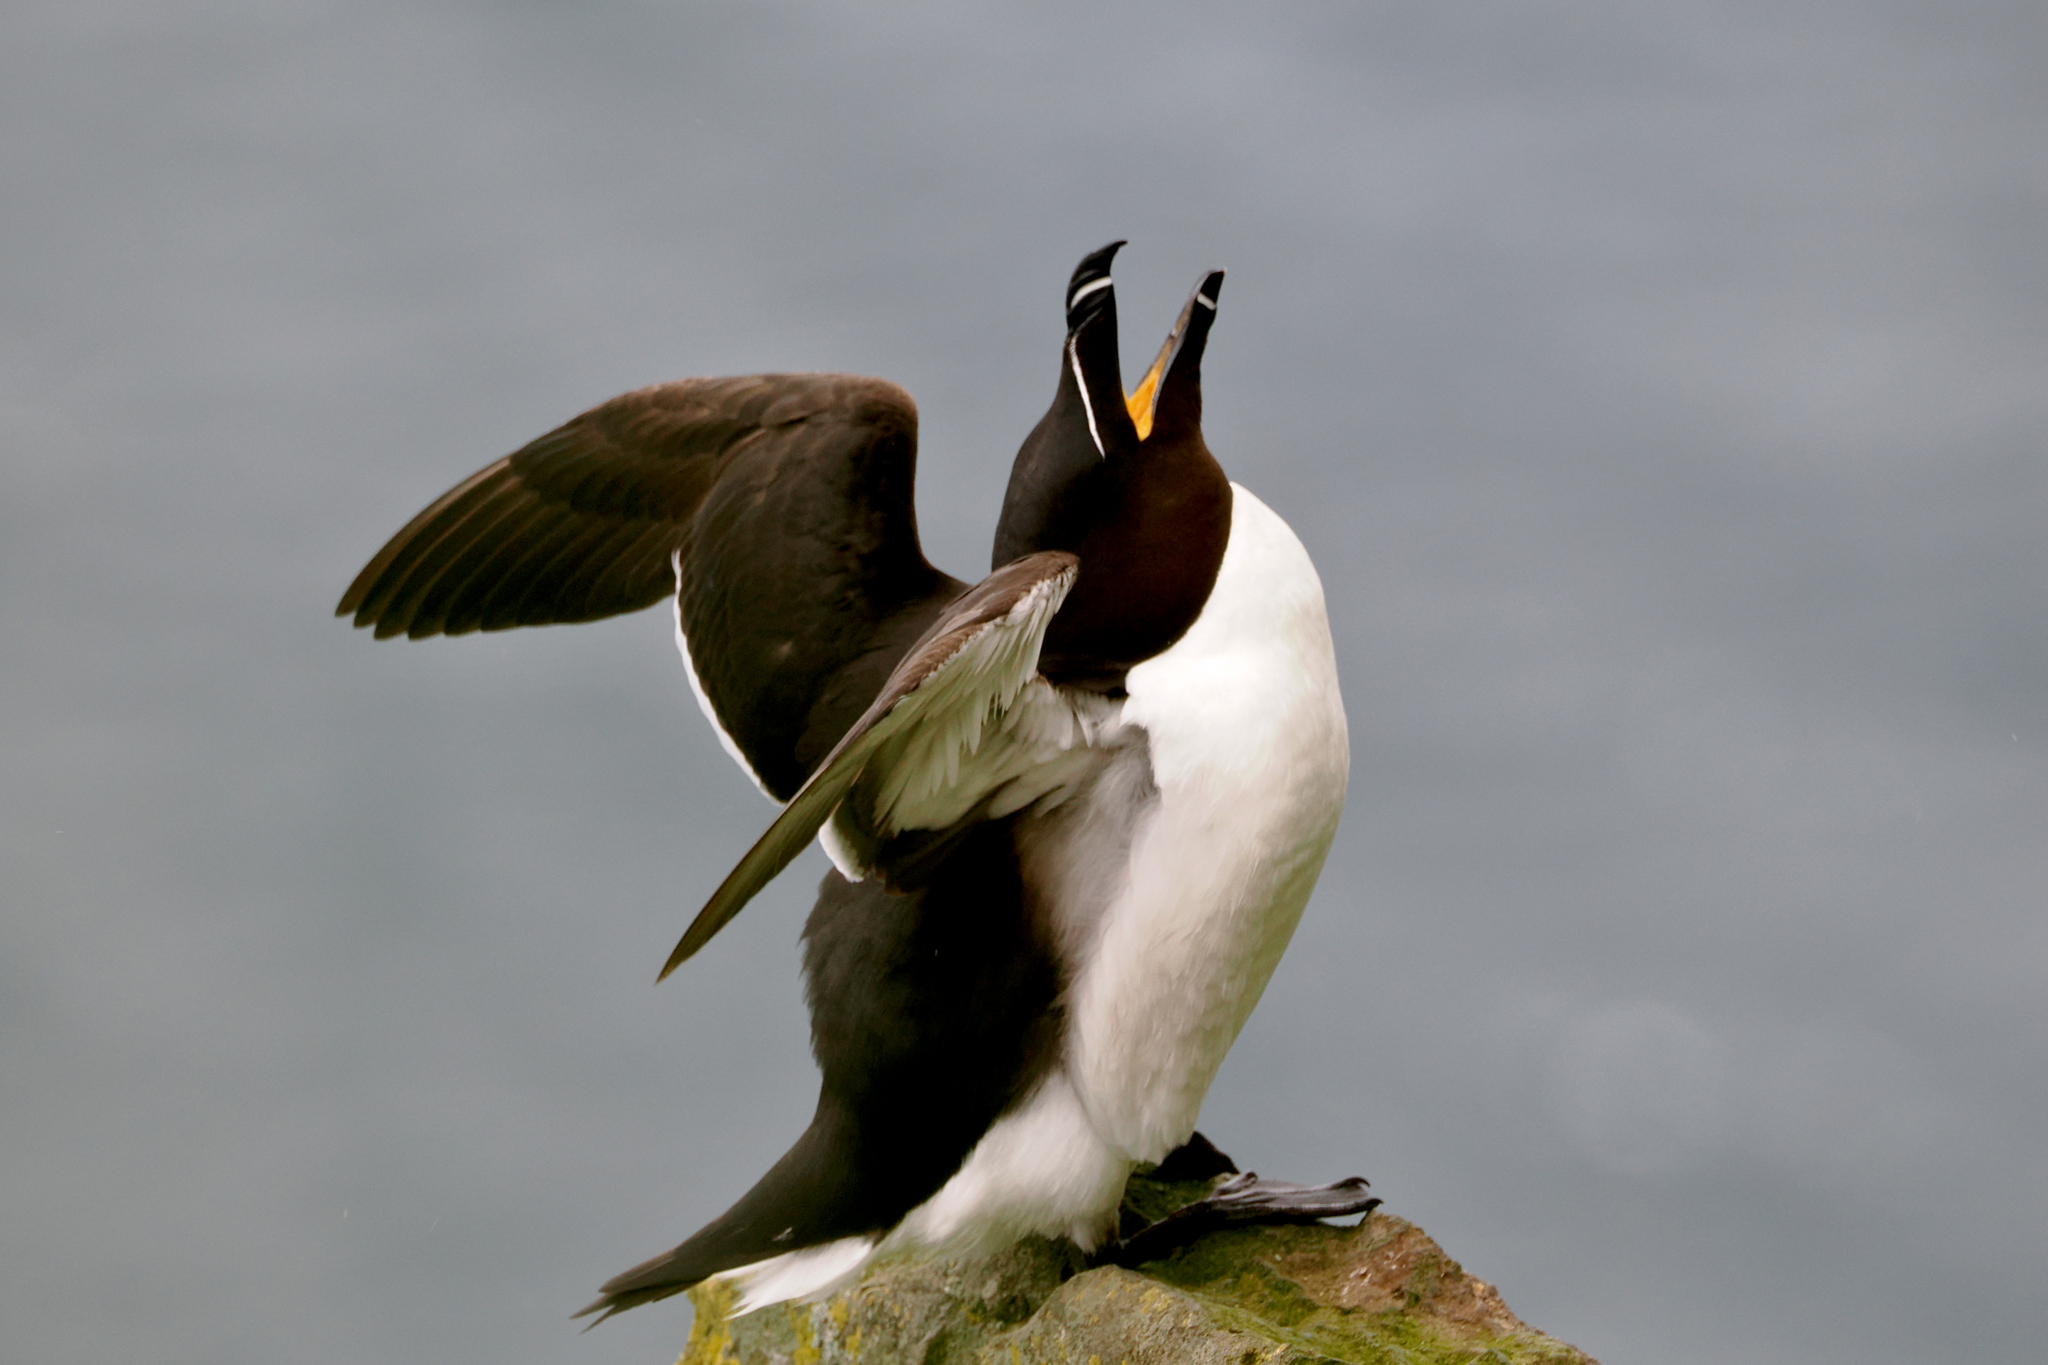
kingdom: Animalia
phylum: Chordata
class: Aves
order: Charadriiformes
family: Alcidae
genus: Alca
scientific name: Alca torda
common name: Razorbill
